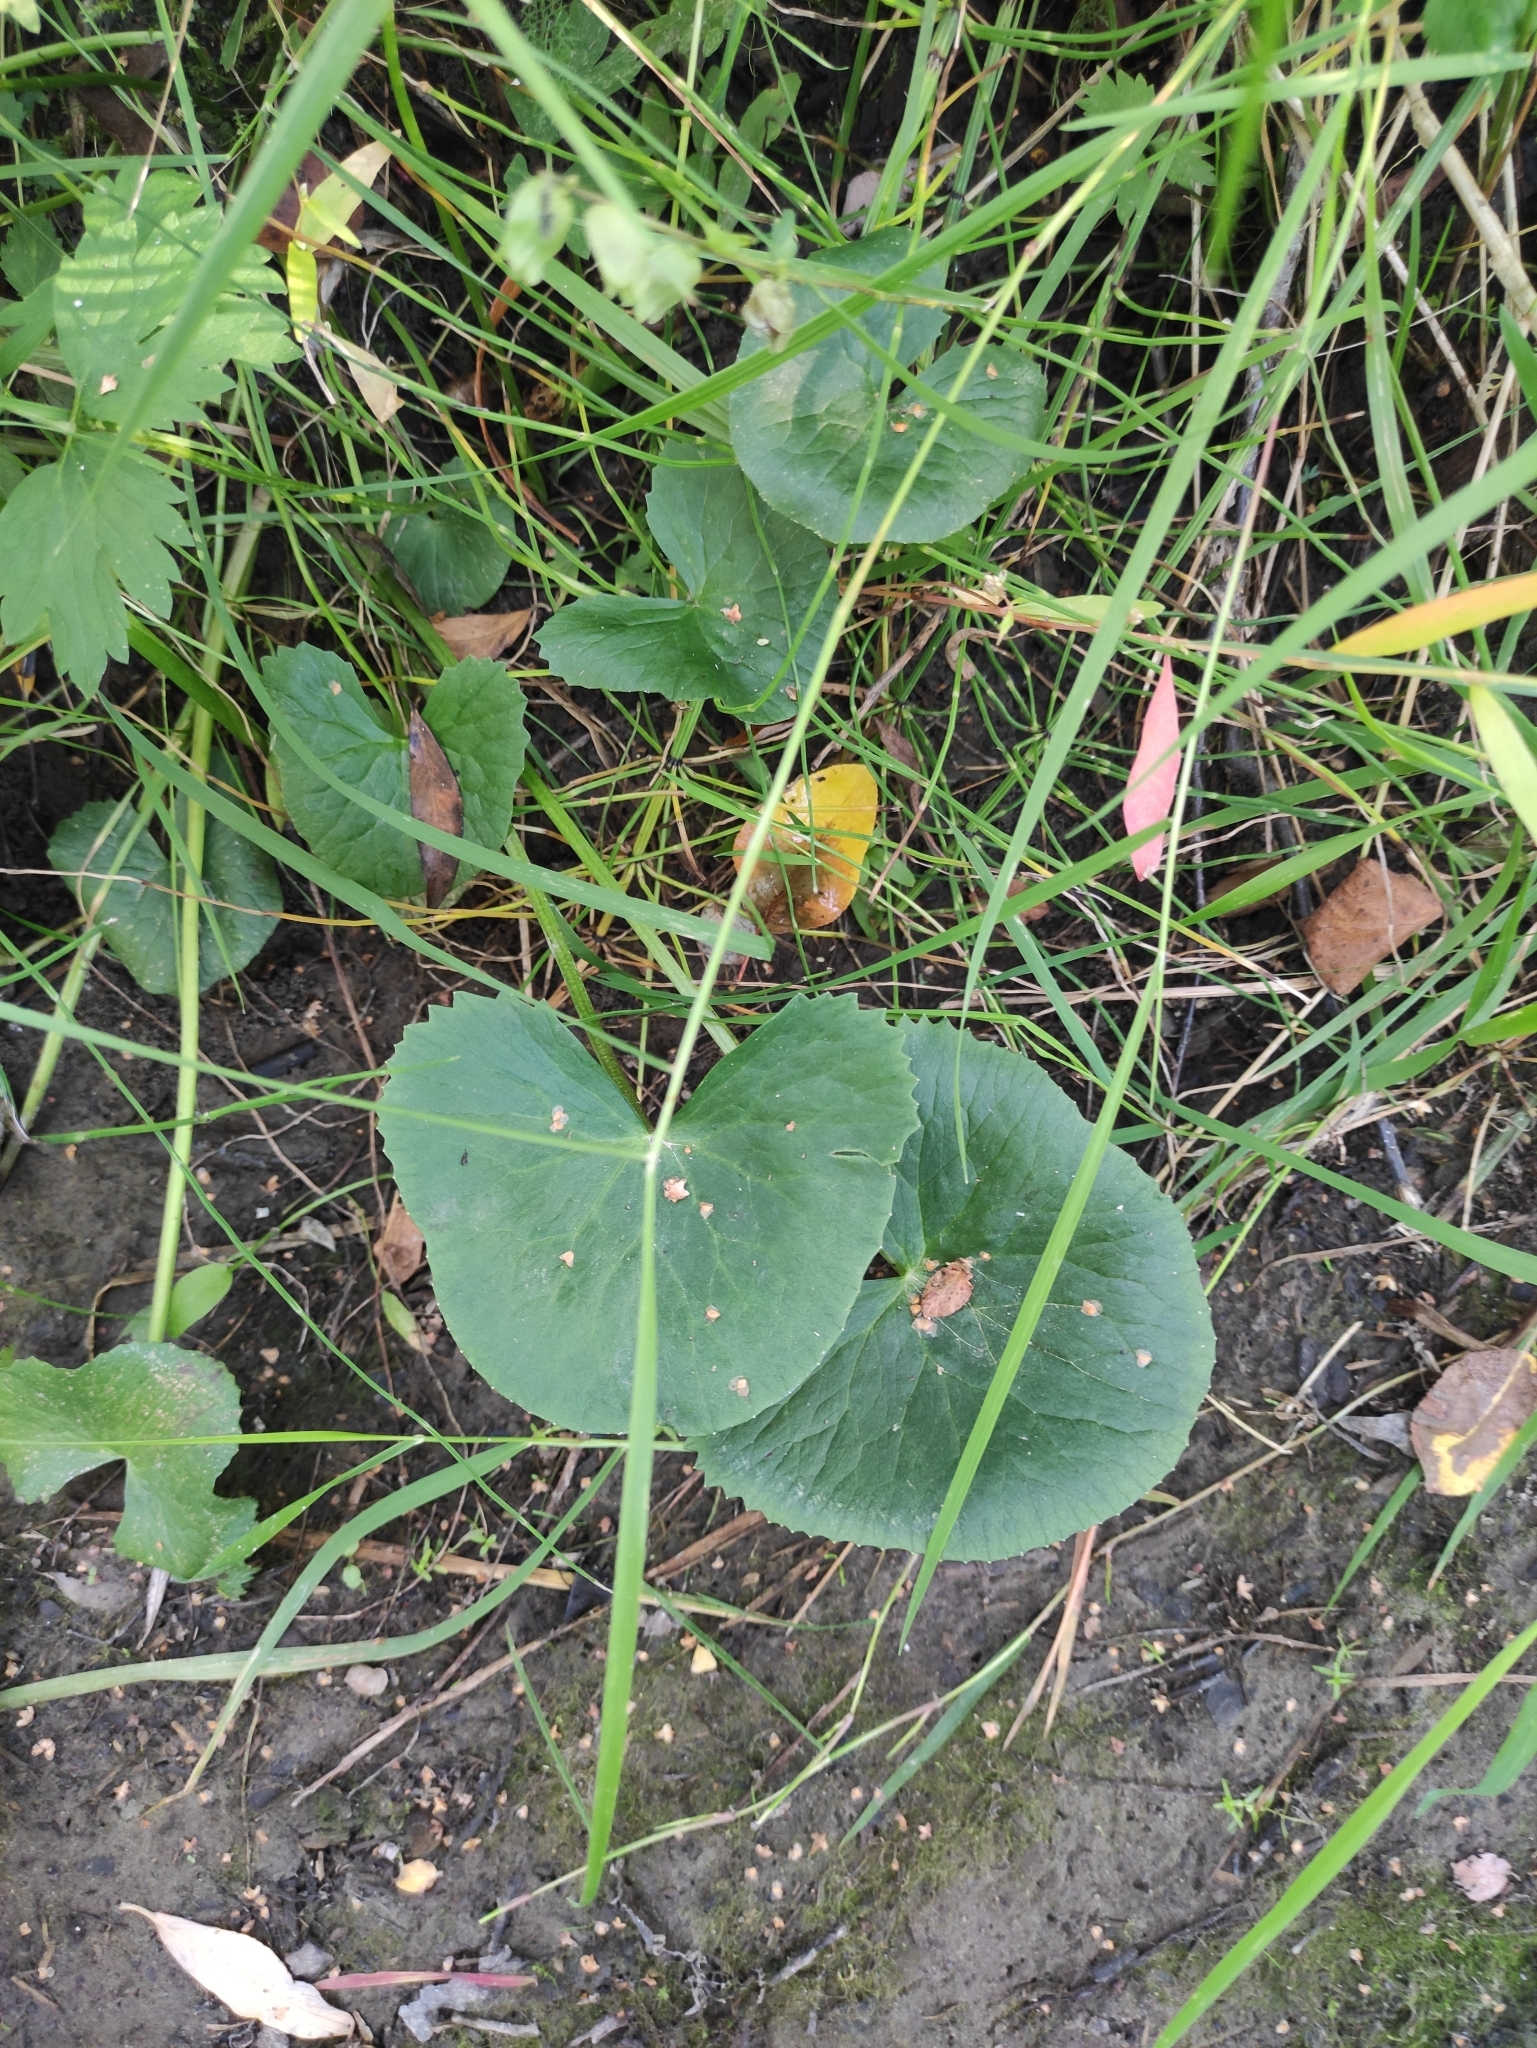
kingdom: Plantae
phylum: Tracheophyta
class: Magnoliopsida
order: Ranunculales
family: Ranunculaceae
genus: Caltha
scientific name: Caltha palustris
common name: Marsh marigold
